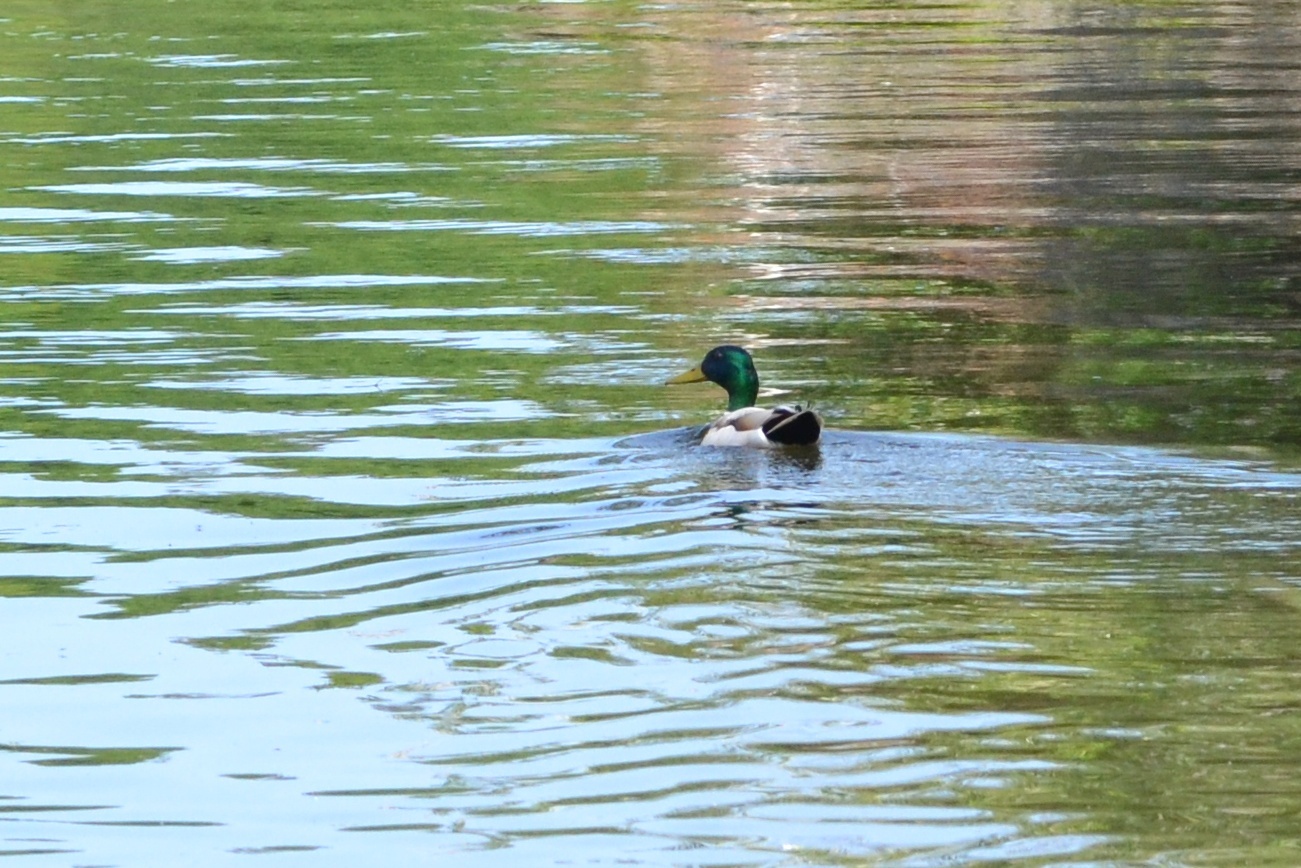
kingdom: Animalia
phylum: Chordata
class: Aves
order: Anseriformes
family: Anatidae
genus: Anas
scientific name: Anas platyrhynchos
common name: Mallard
